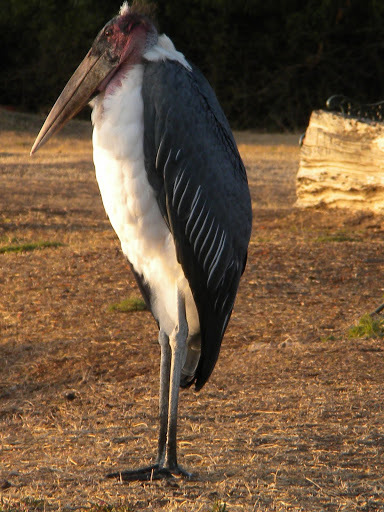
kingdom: Animalia
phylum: Chordata
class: Aves
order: Ciconiiformes
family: Ciconiidae
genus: Leptoptilos
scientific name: Leptoptilos crumenifer
